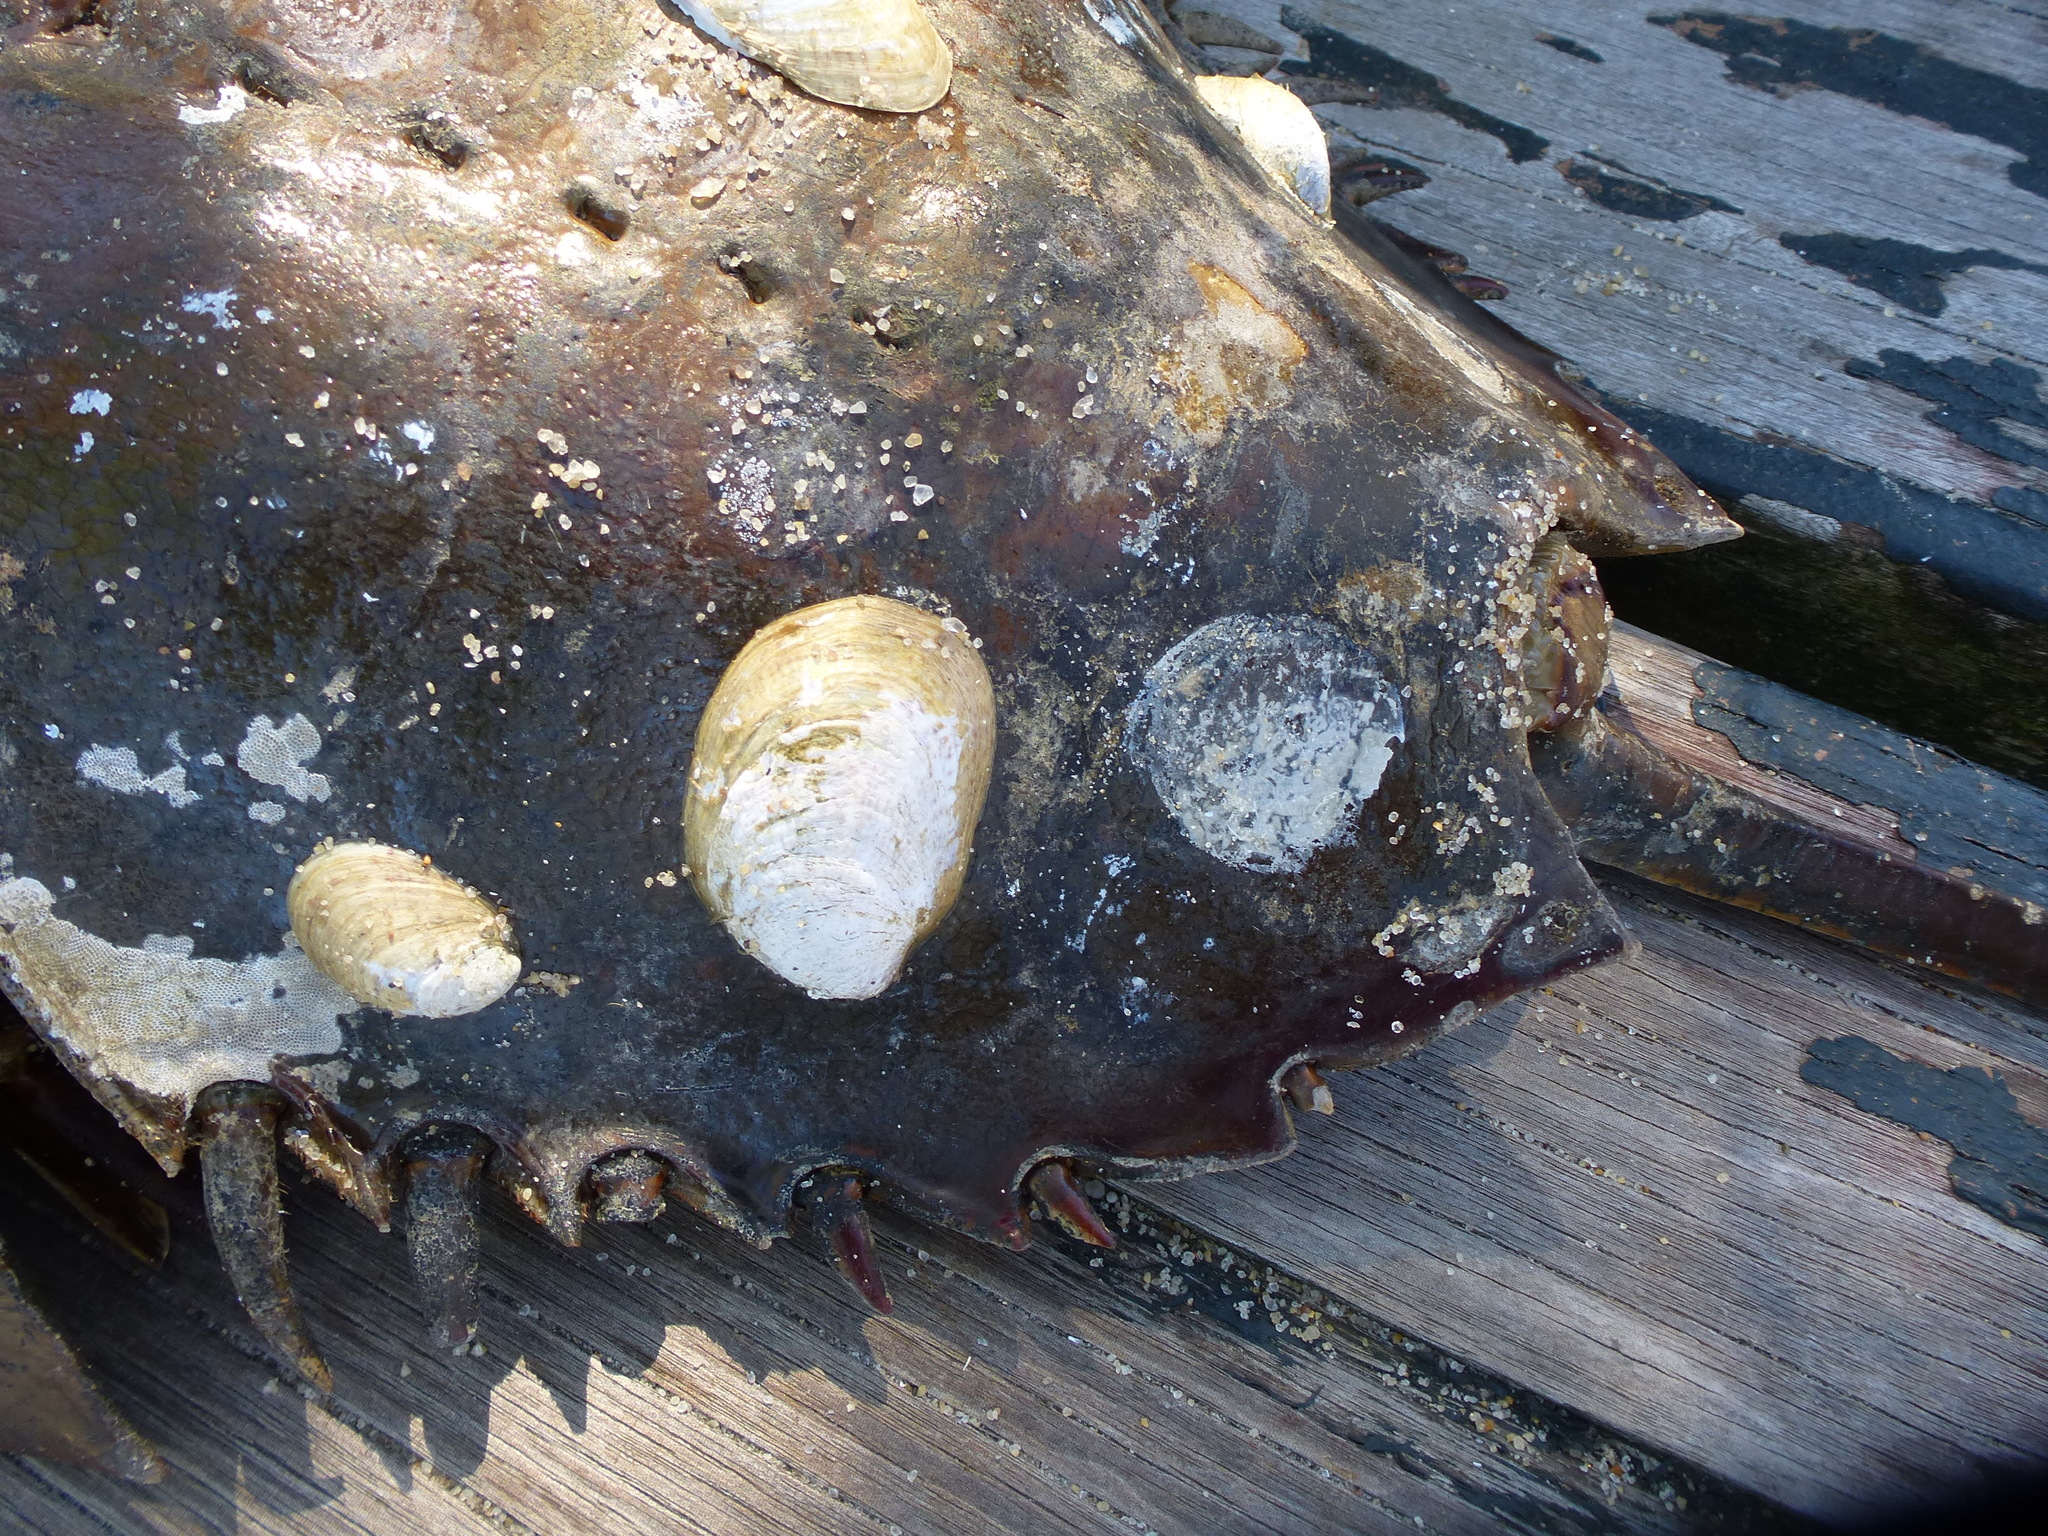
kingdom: Animalia
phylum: Mollusca
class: Gastropoda
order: Littorinimorpha
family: Calyptraeidae
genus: Crepidula
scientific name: Crepidula fornicata
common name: Slipper limpet
